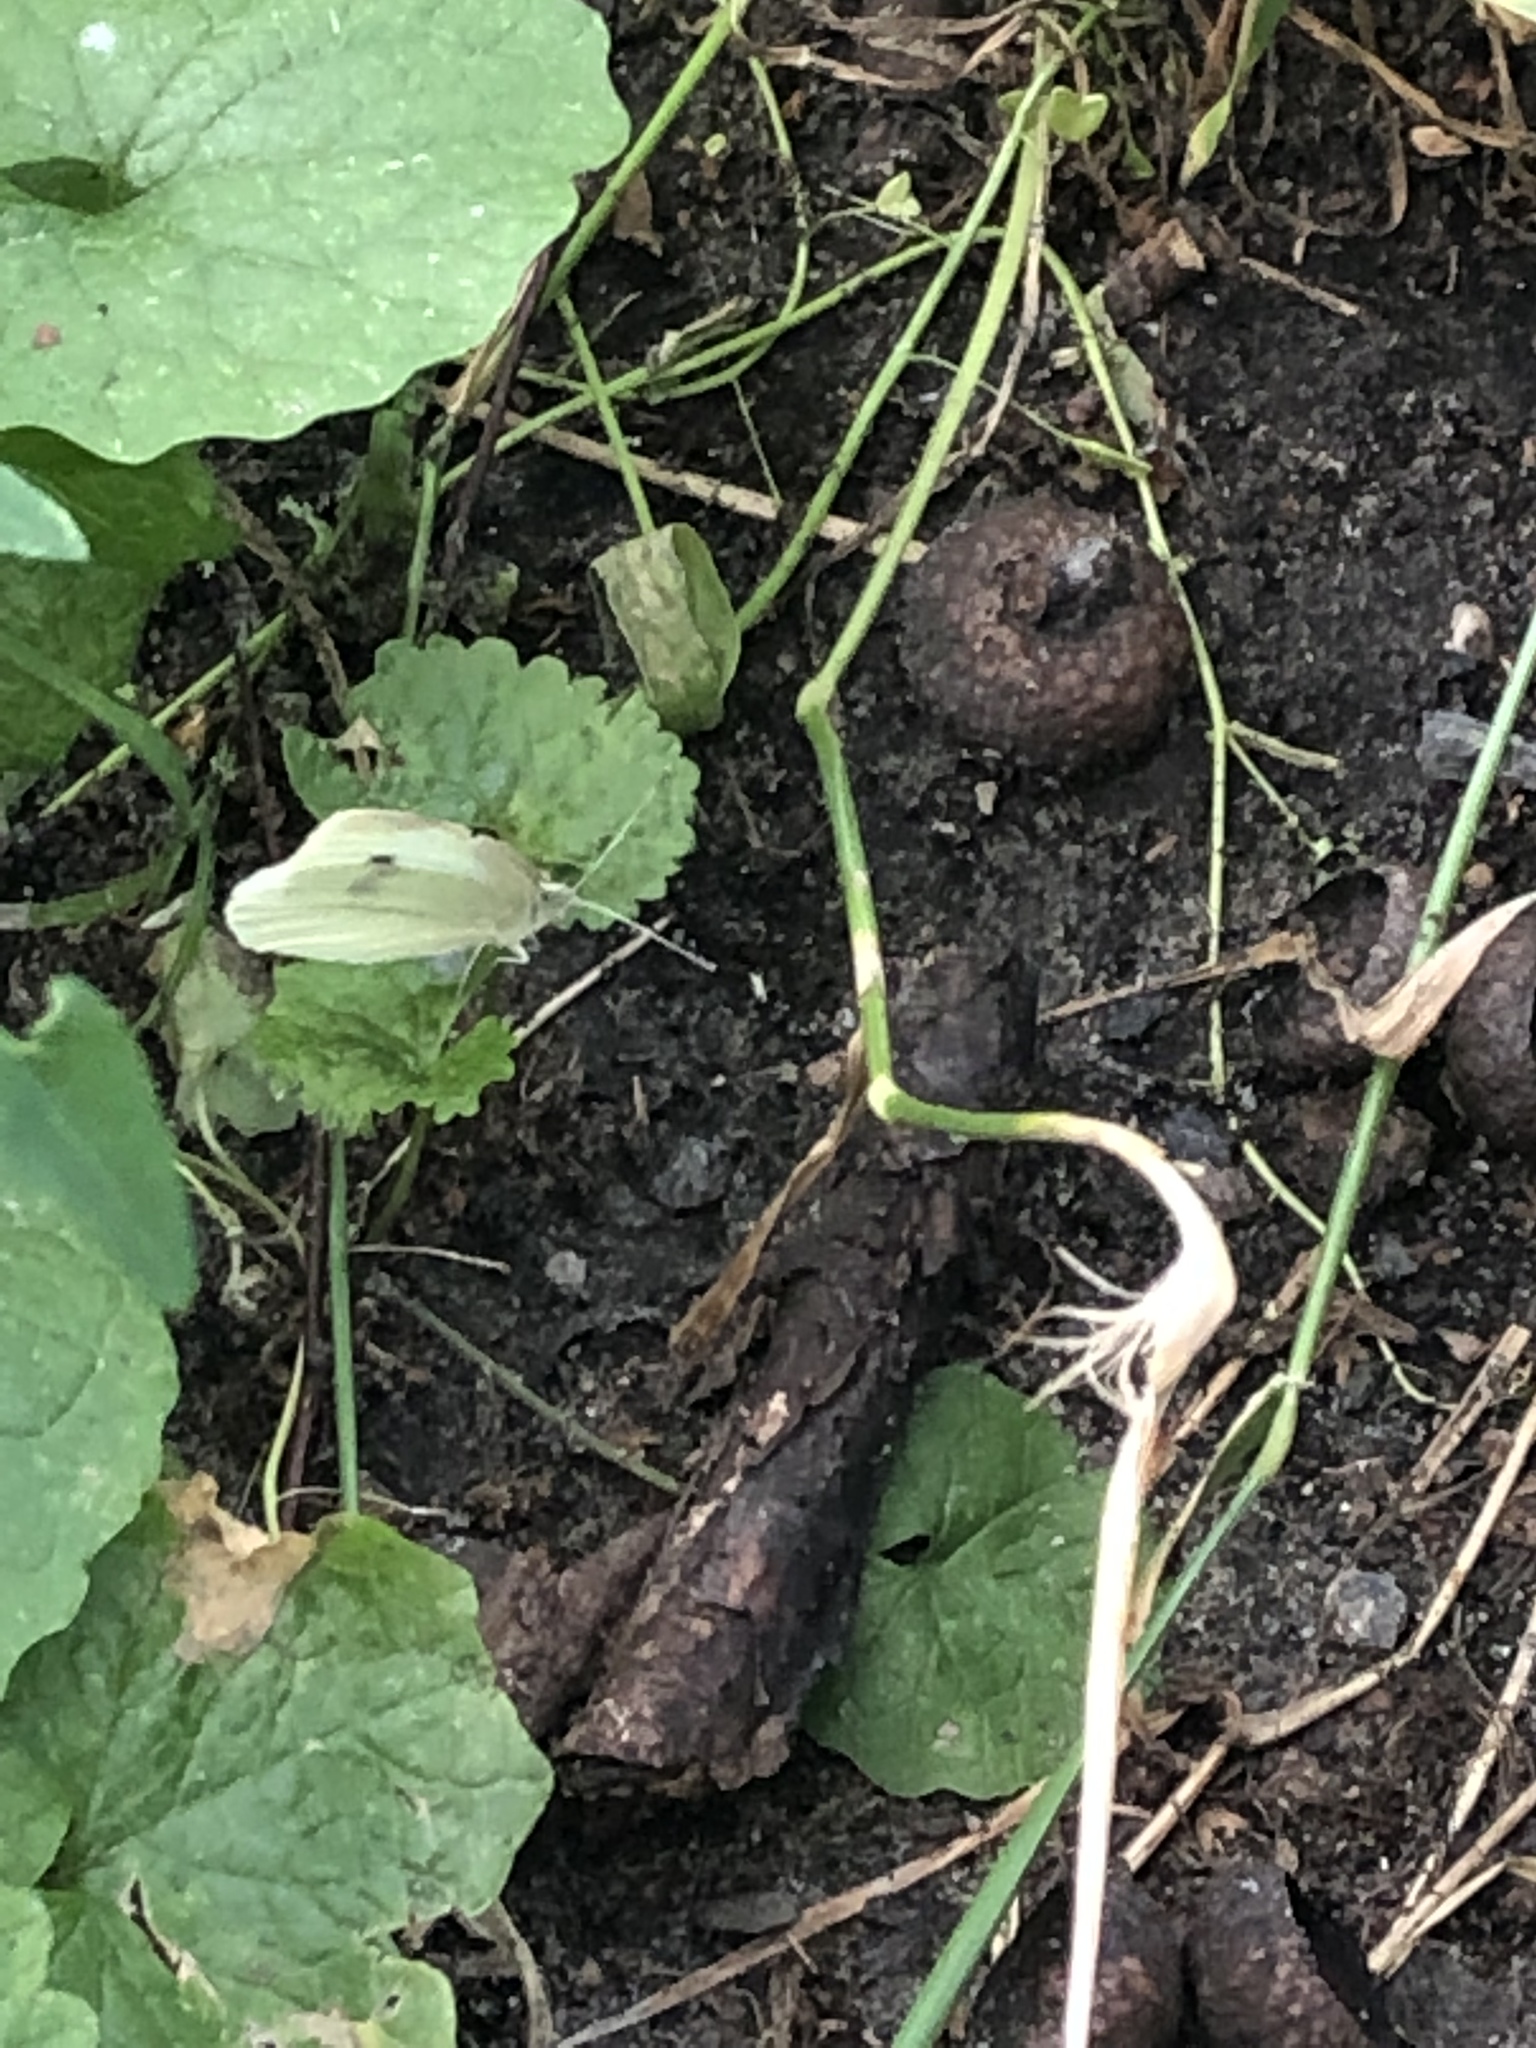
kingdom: Animalia
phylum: Arthropoda
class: Insecta
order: Lepidoptera
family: Pieridae
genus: Pieris
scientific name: Pieris rapae
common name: Small white
